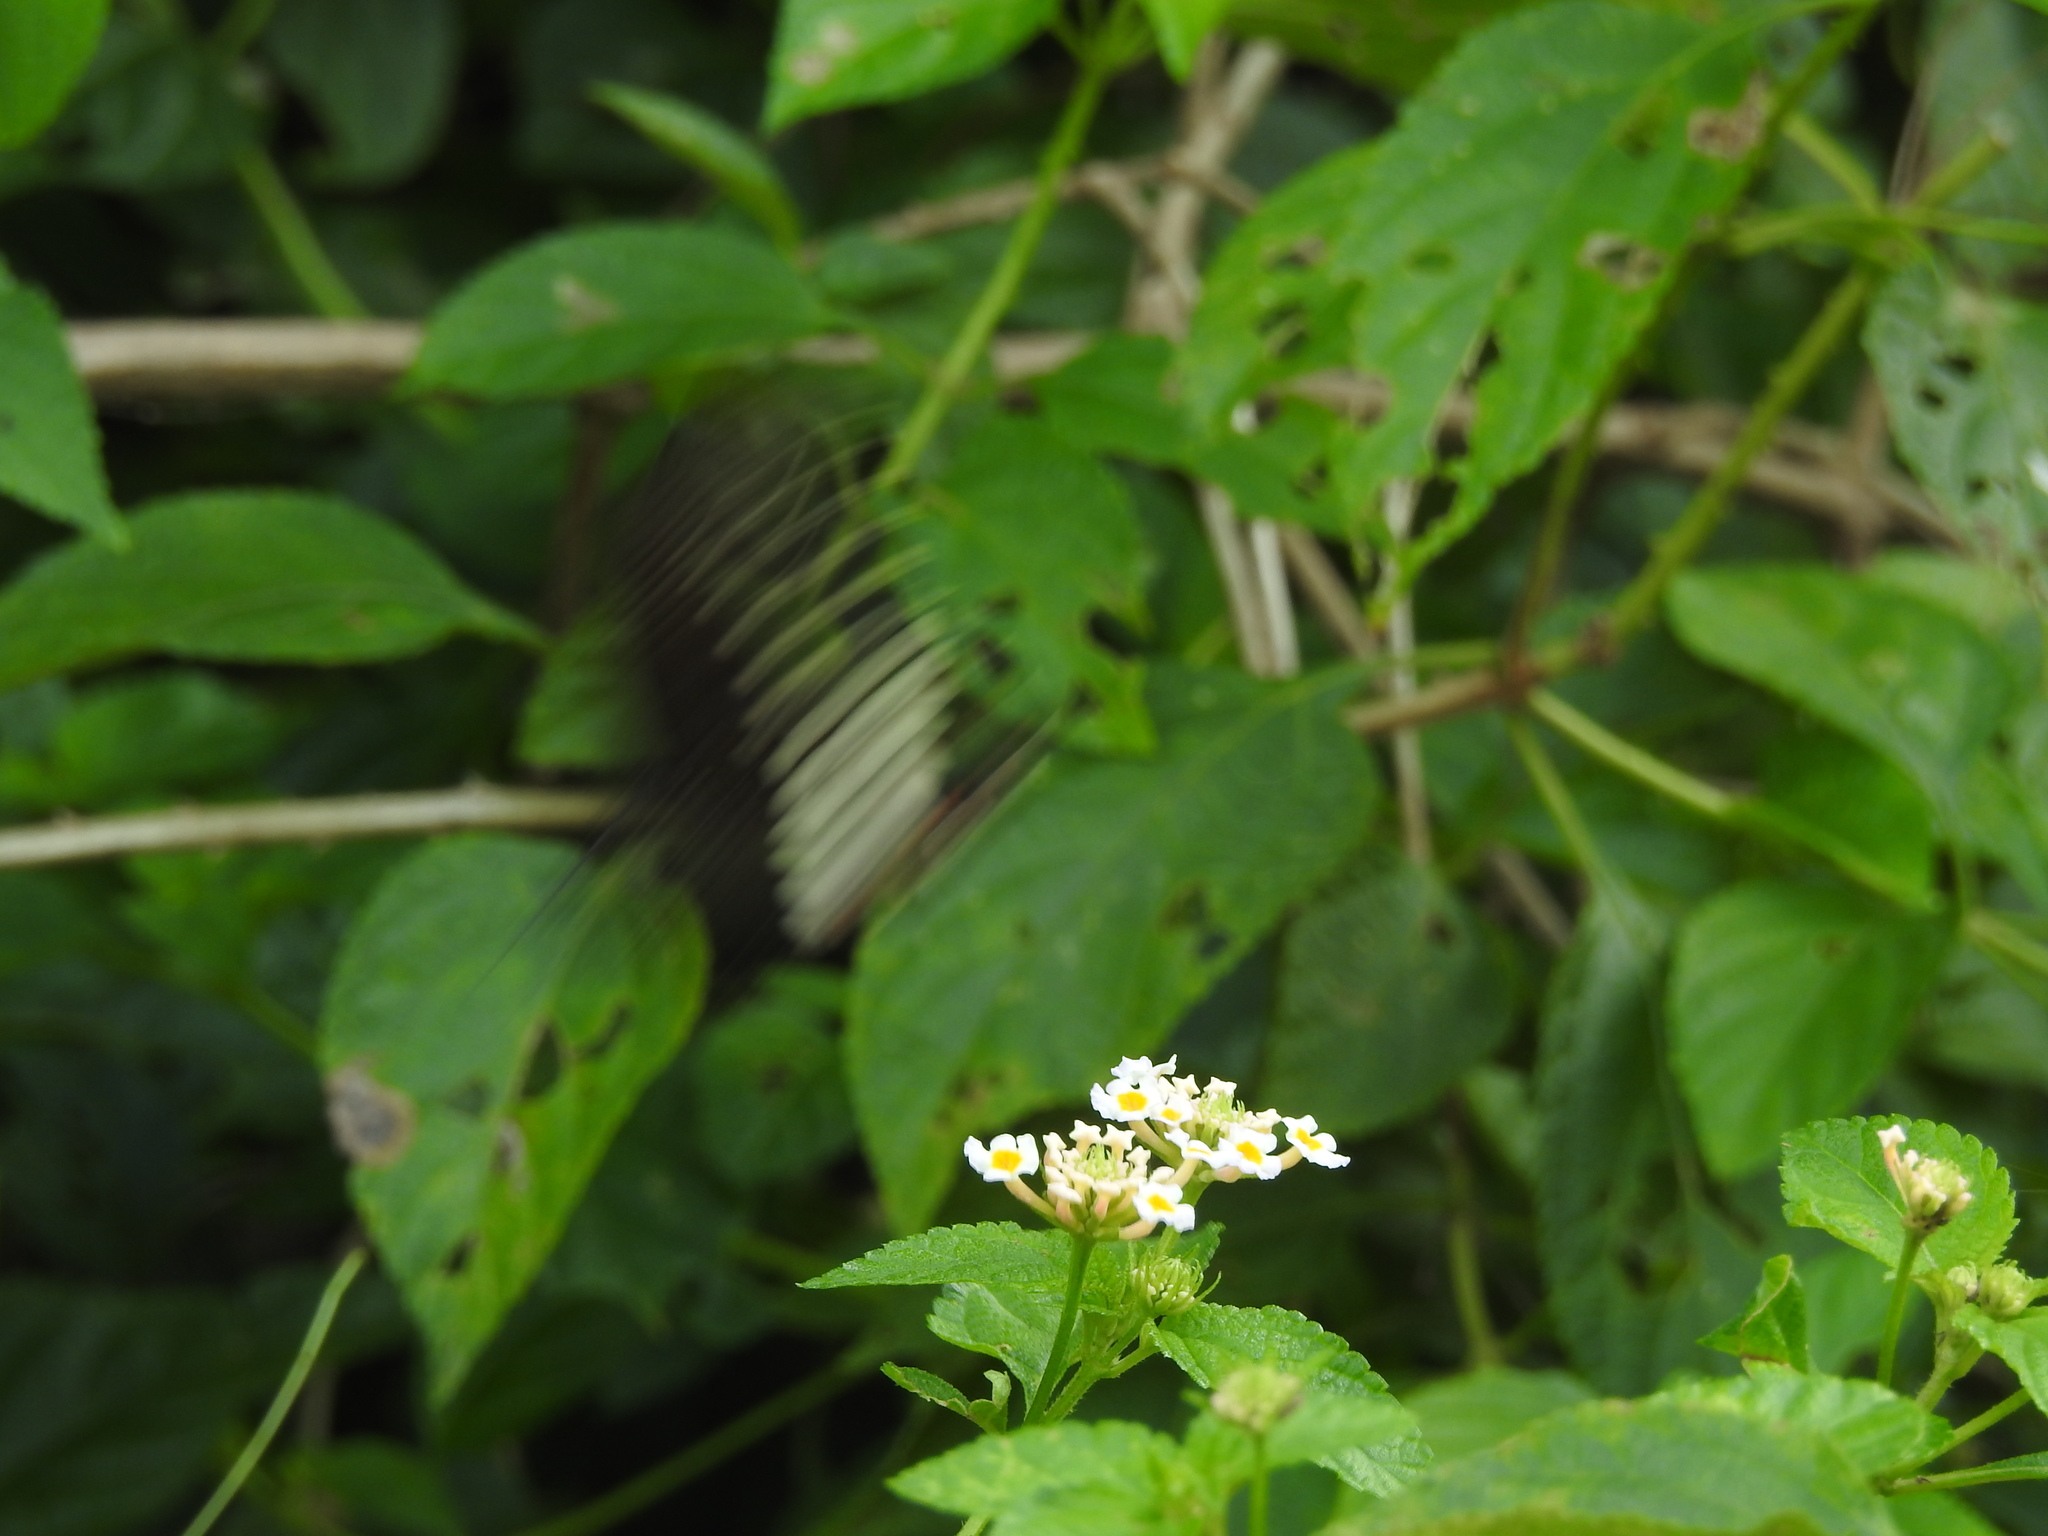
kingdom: Animalia
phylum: Arthropoda
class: Insecta
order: Lepidoptera
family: Papilionidae
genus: Papilio
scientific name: Papilio polytes
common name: Common mormon
